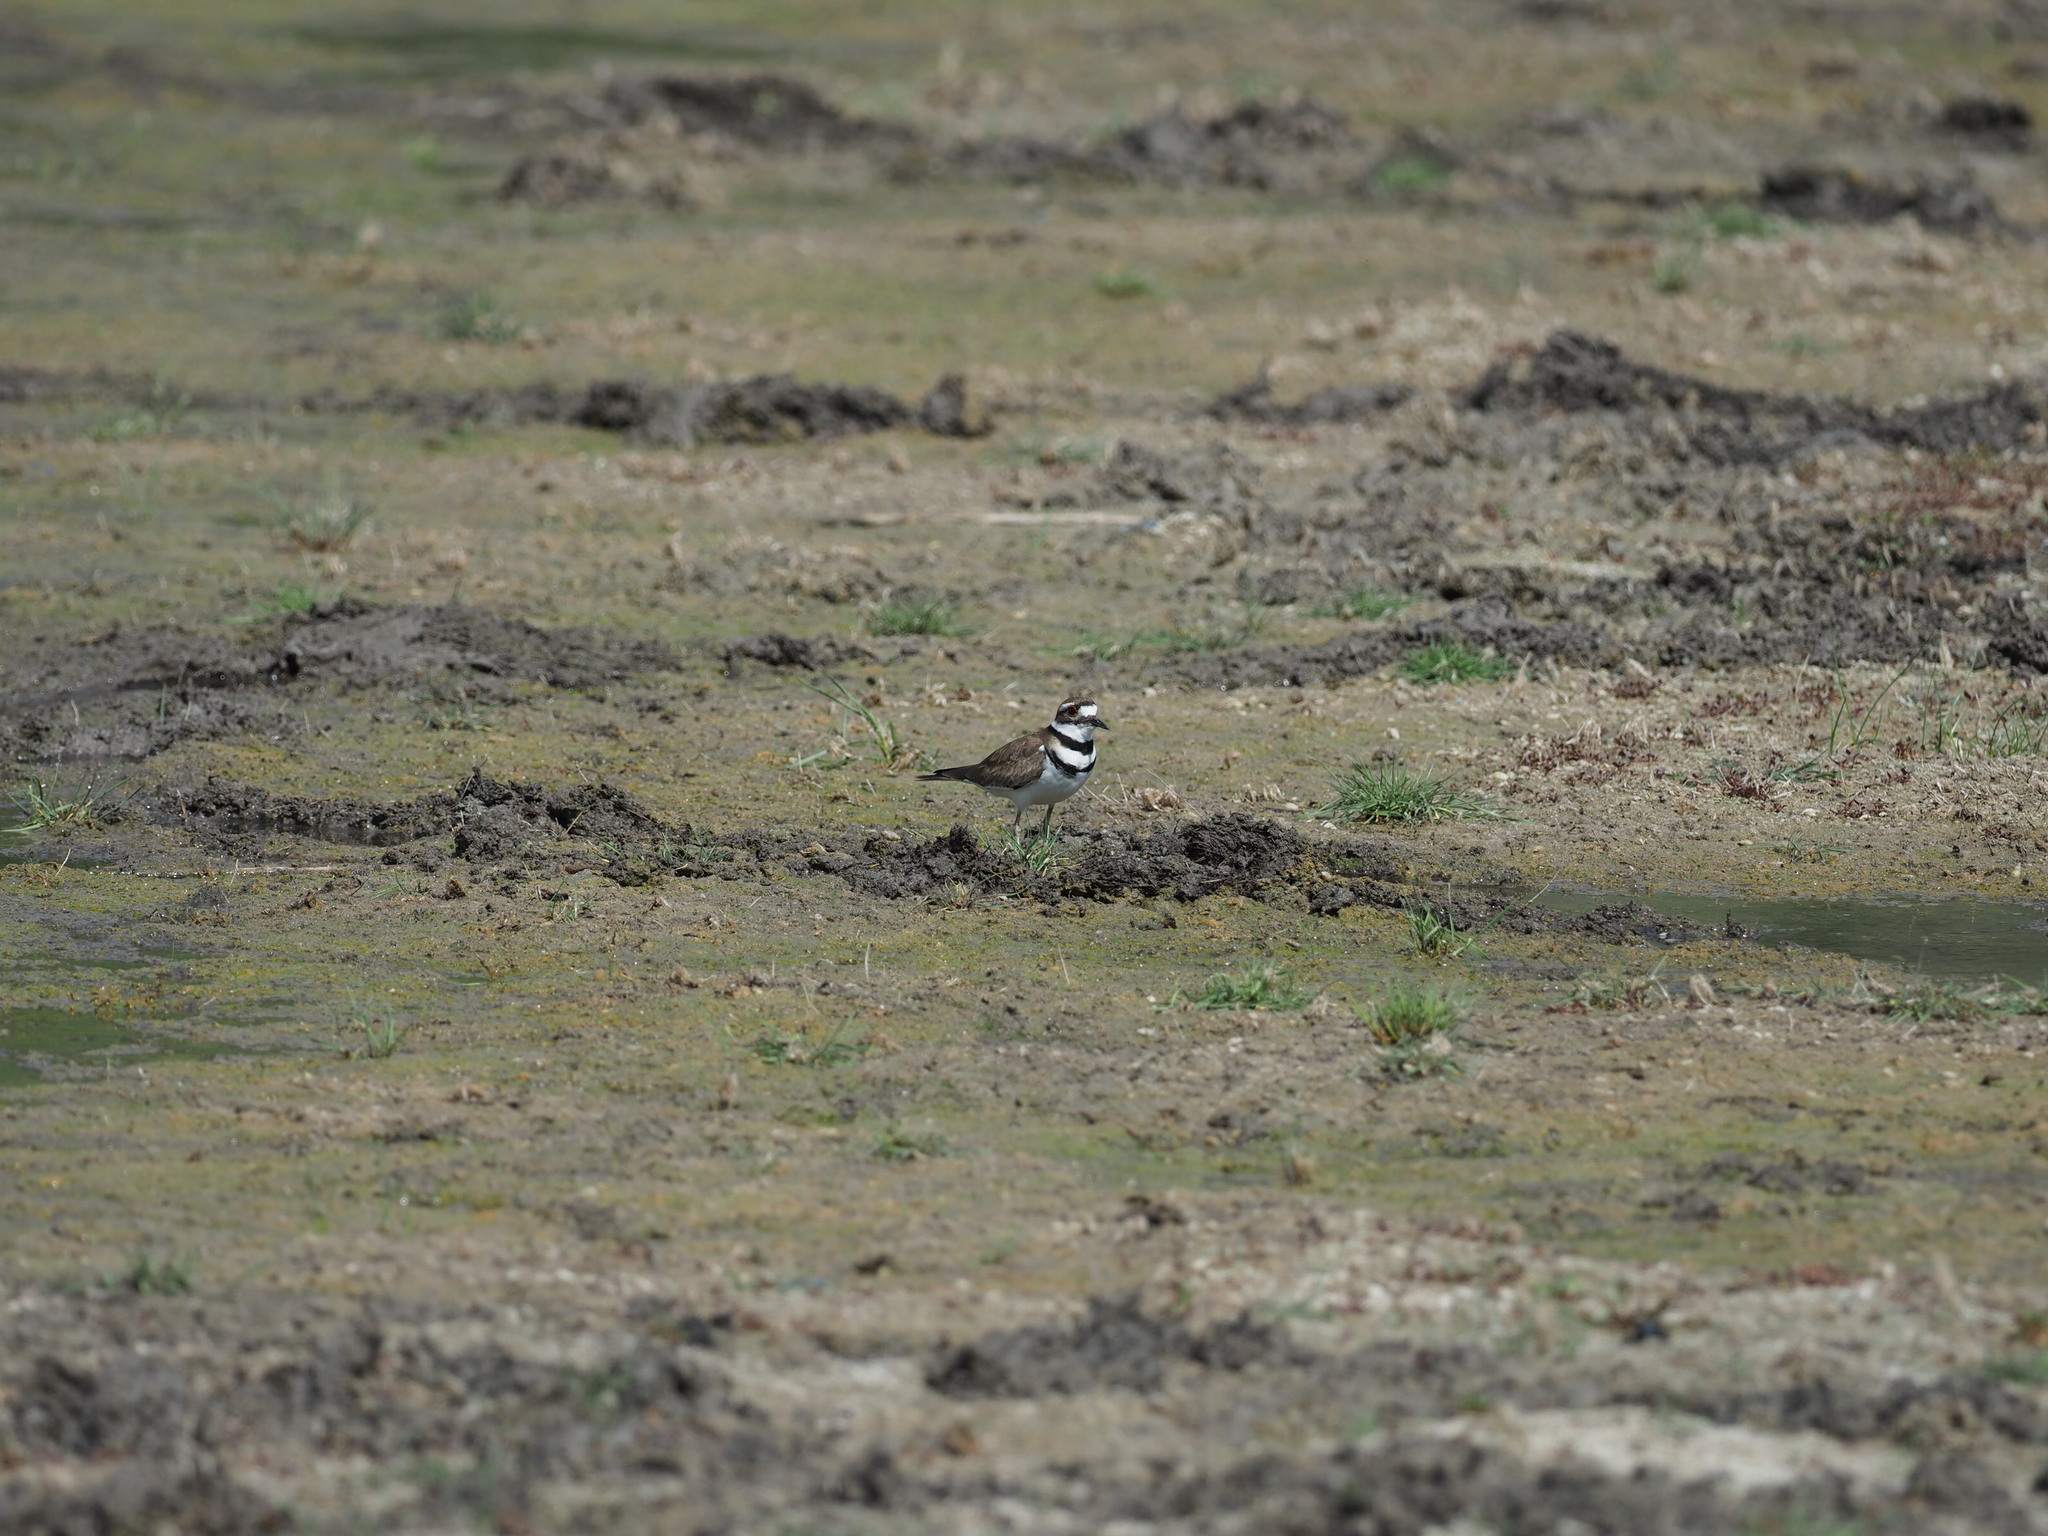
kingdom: Animalia
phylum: Chordata
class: Aves
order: Charadriiformes
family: Charadriidae
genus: Charadrius
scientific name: Charadrius vociferus
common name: Killdeer
